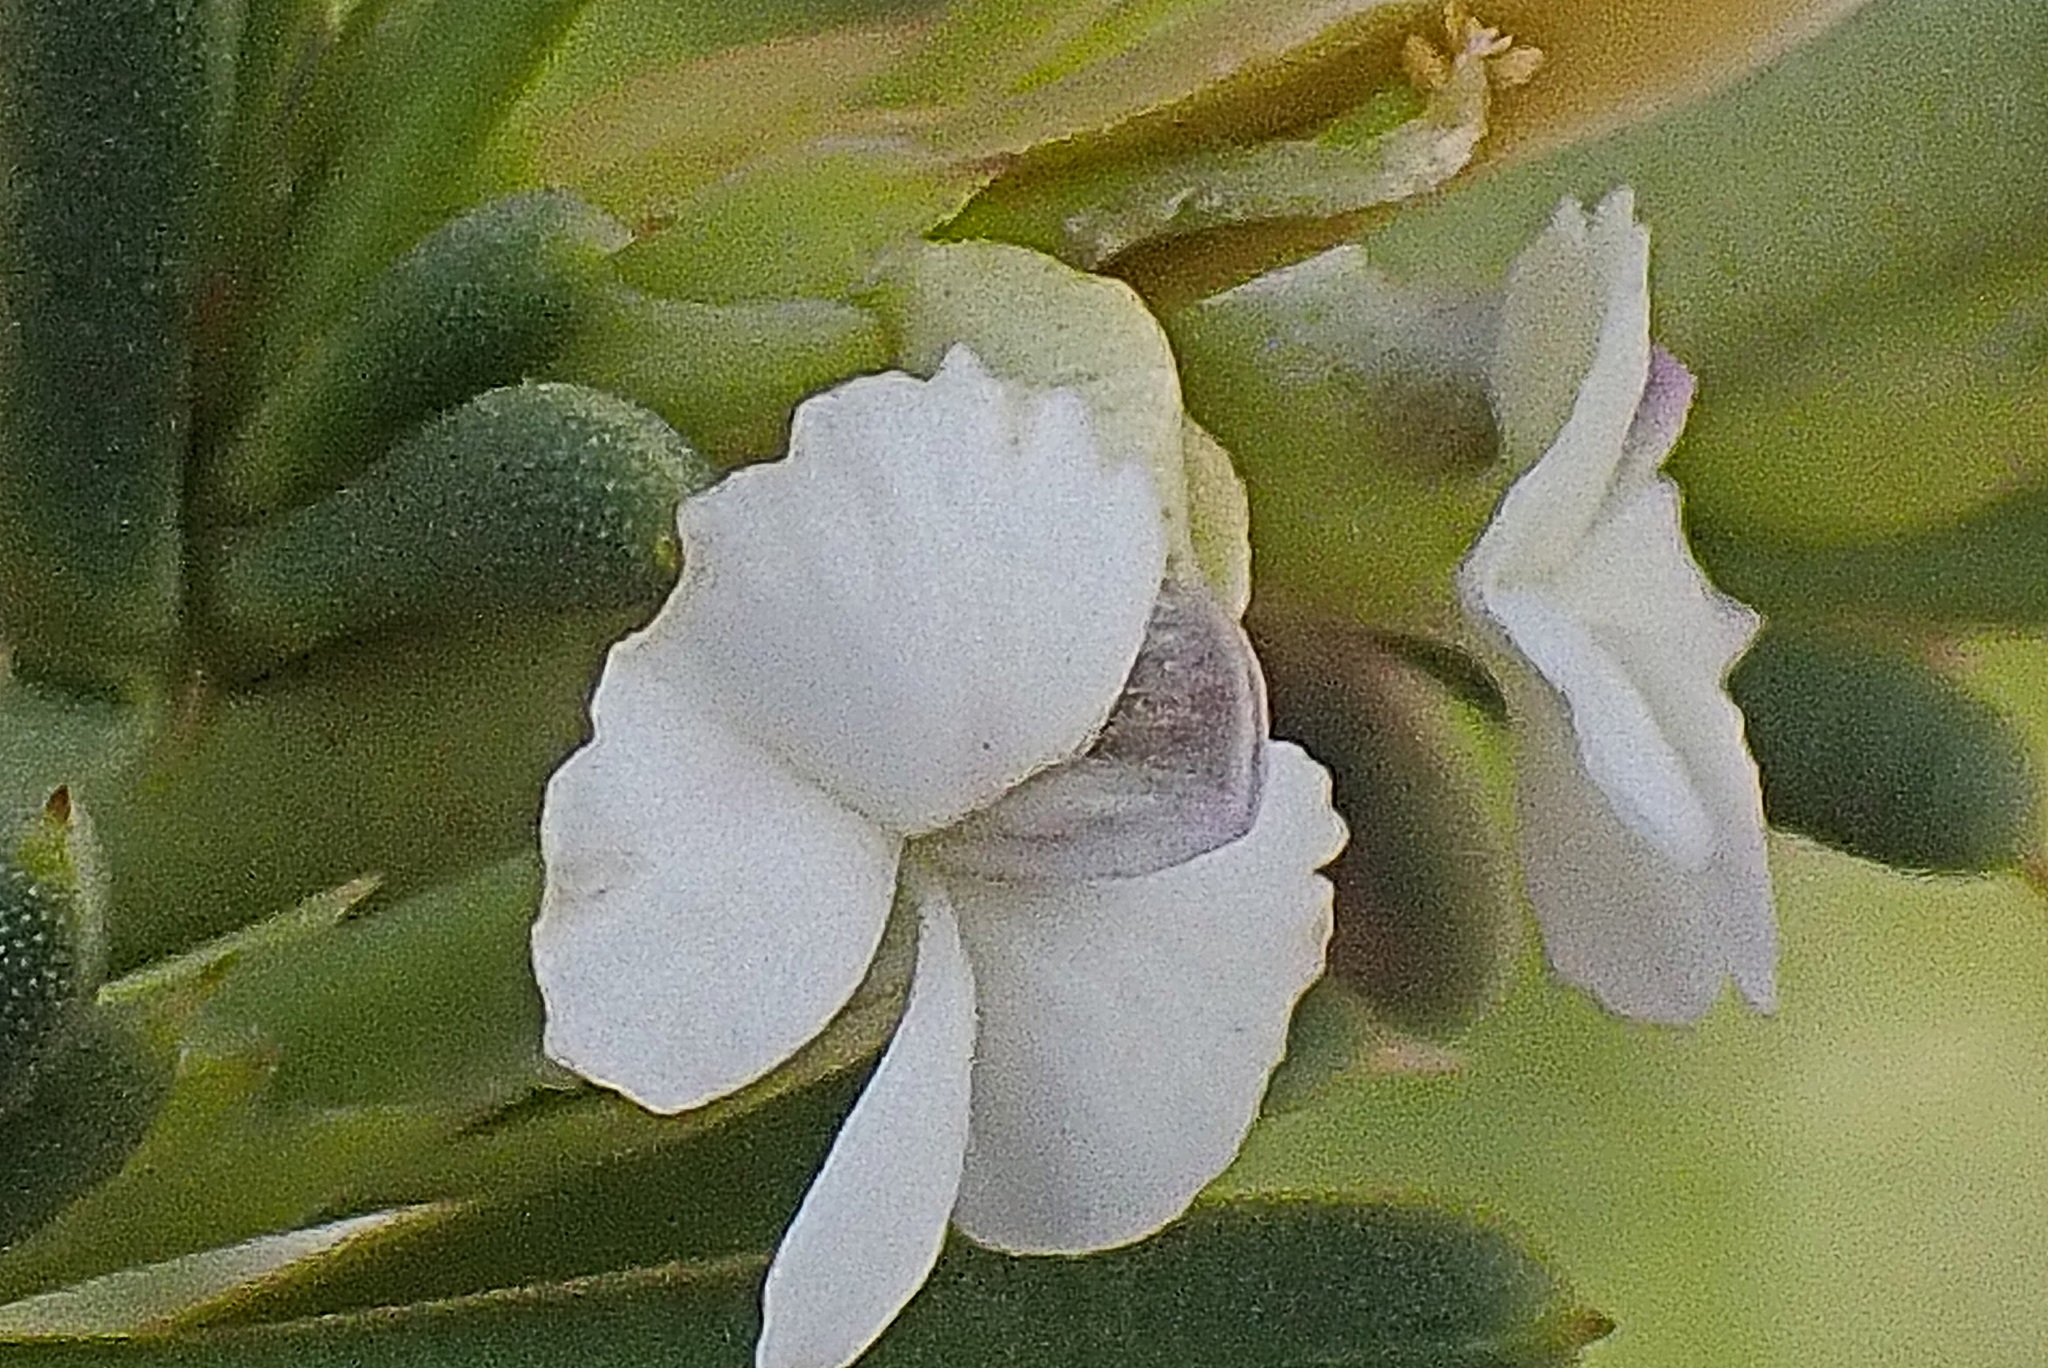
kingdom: Plantae
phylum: Tracheophyta
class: Magnoliopsida
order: Fabales
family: Polygalaceae
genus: Muraltia
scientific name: Muraltia karroica
